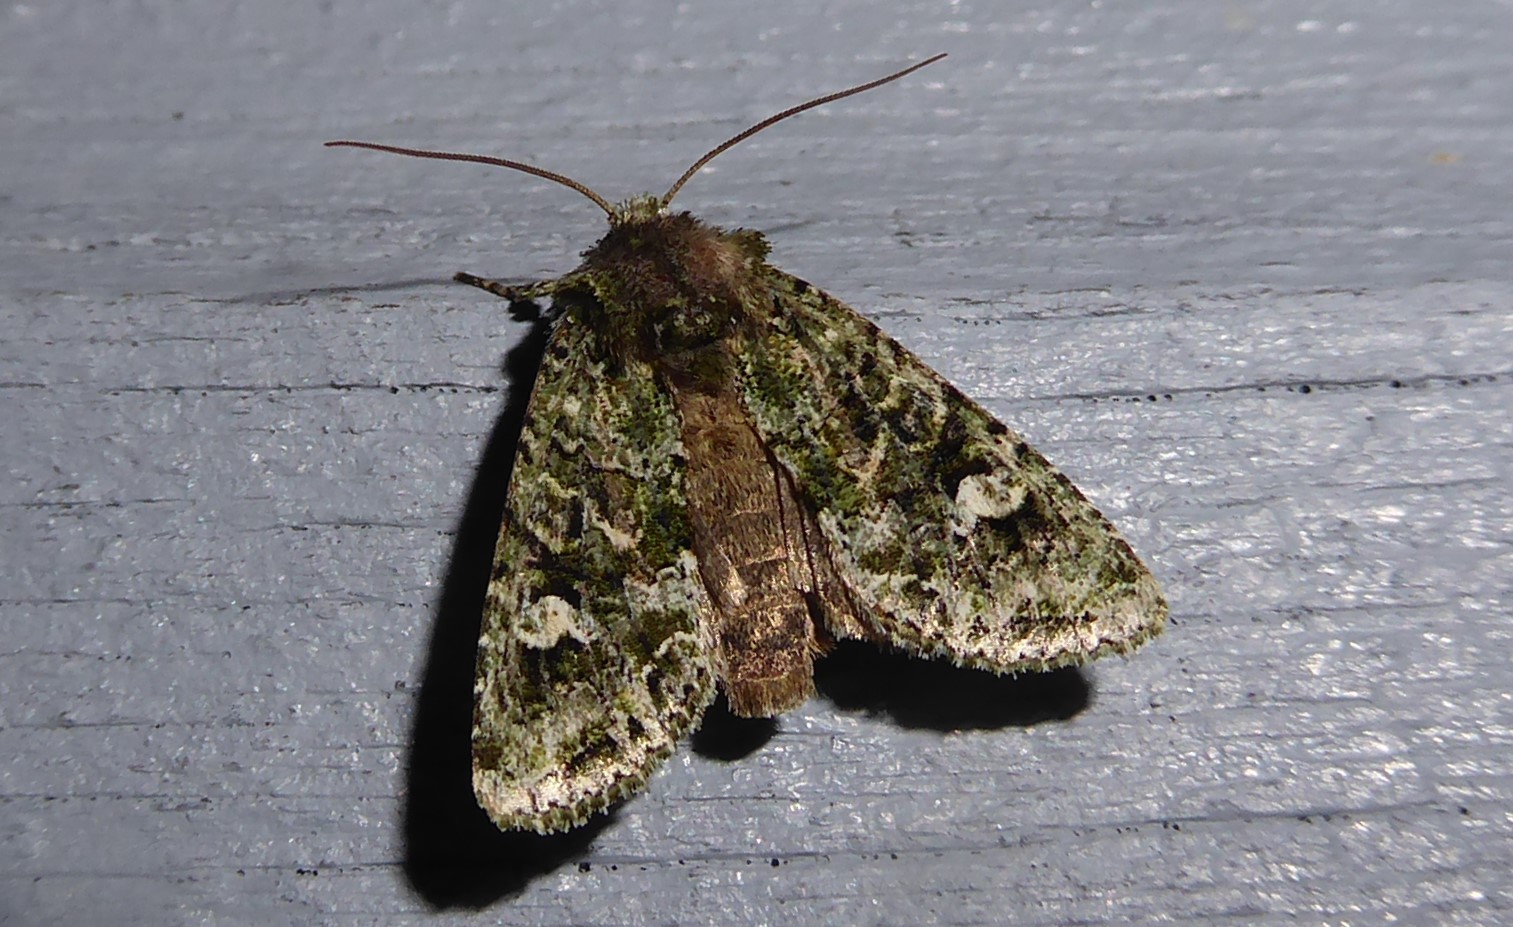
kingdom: Animalia
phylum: Arthropoda
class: Insecta
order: Lepidoptera
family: Noctuidae
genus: Ichneutica
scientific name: Ichneutica
